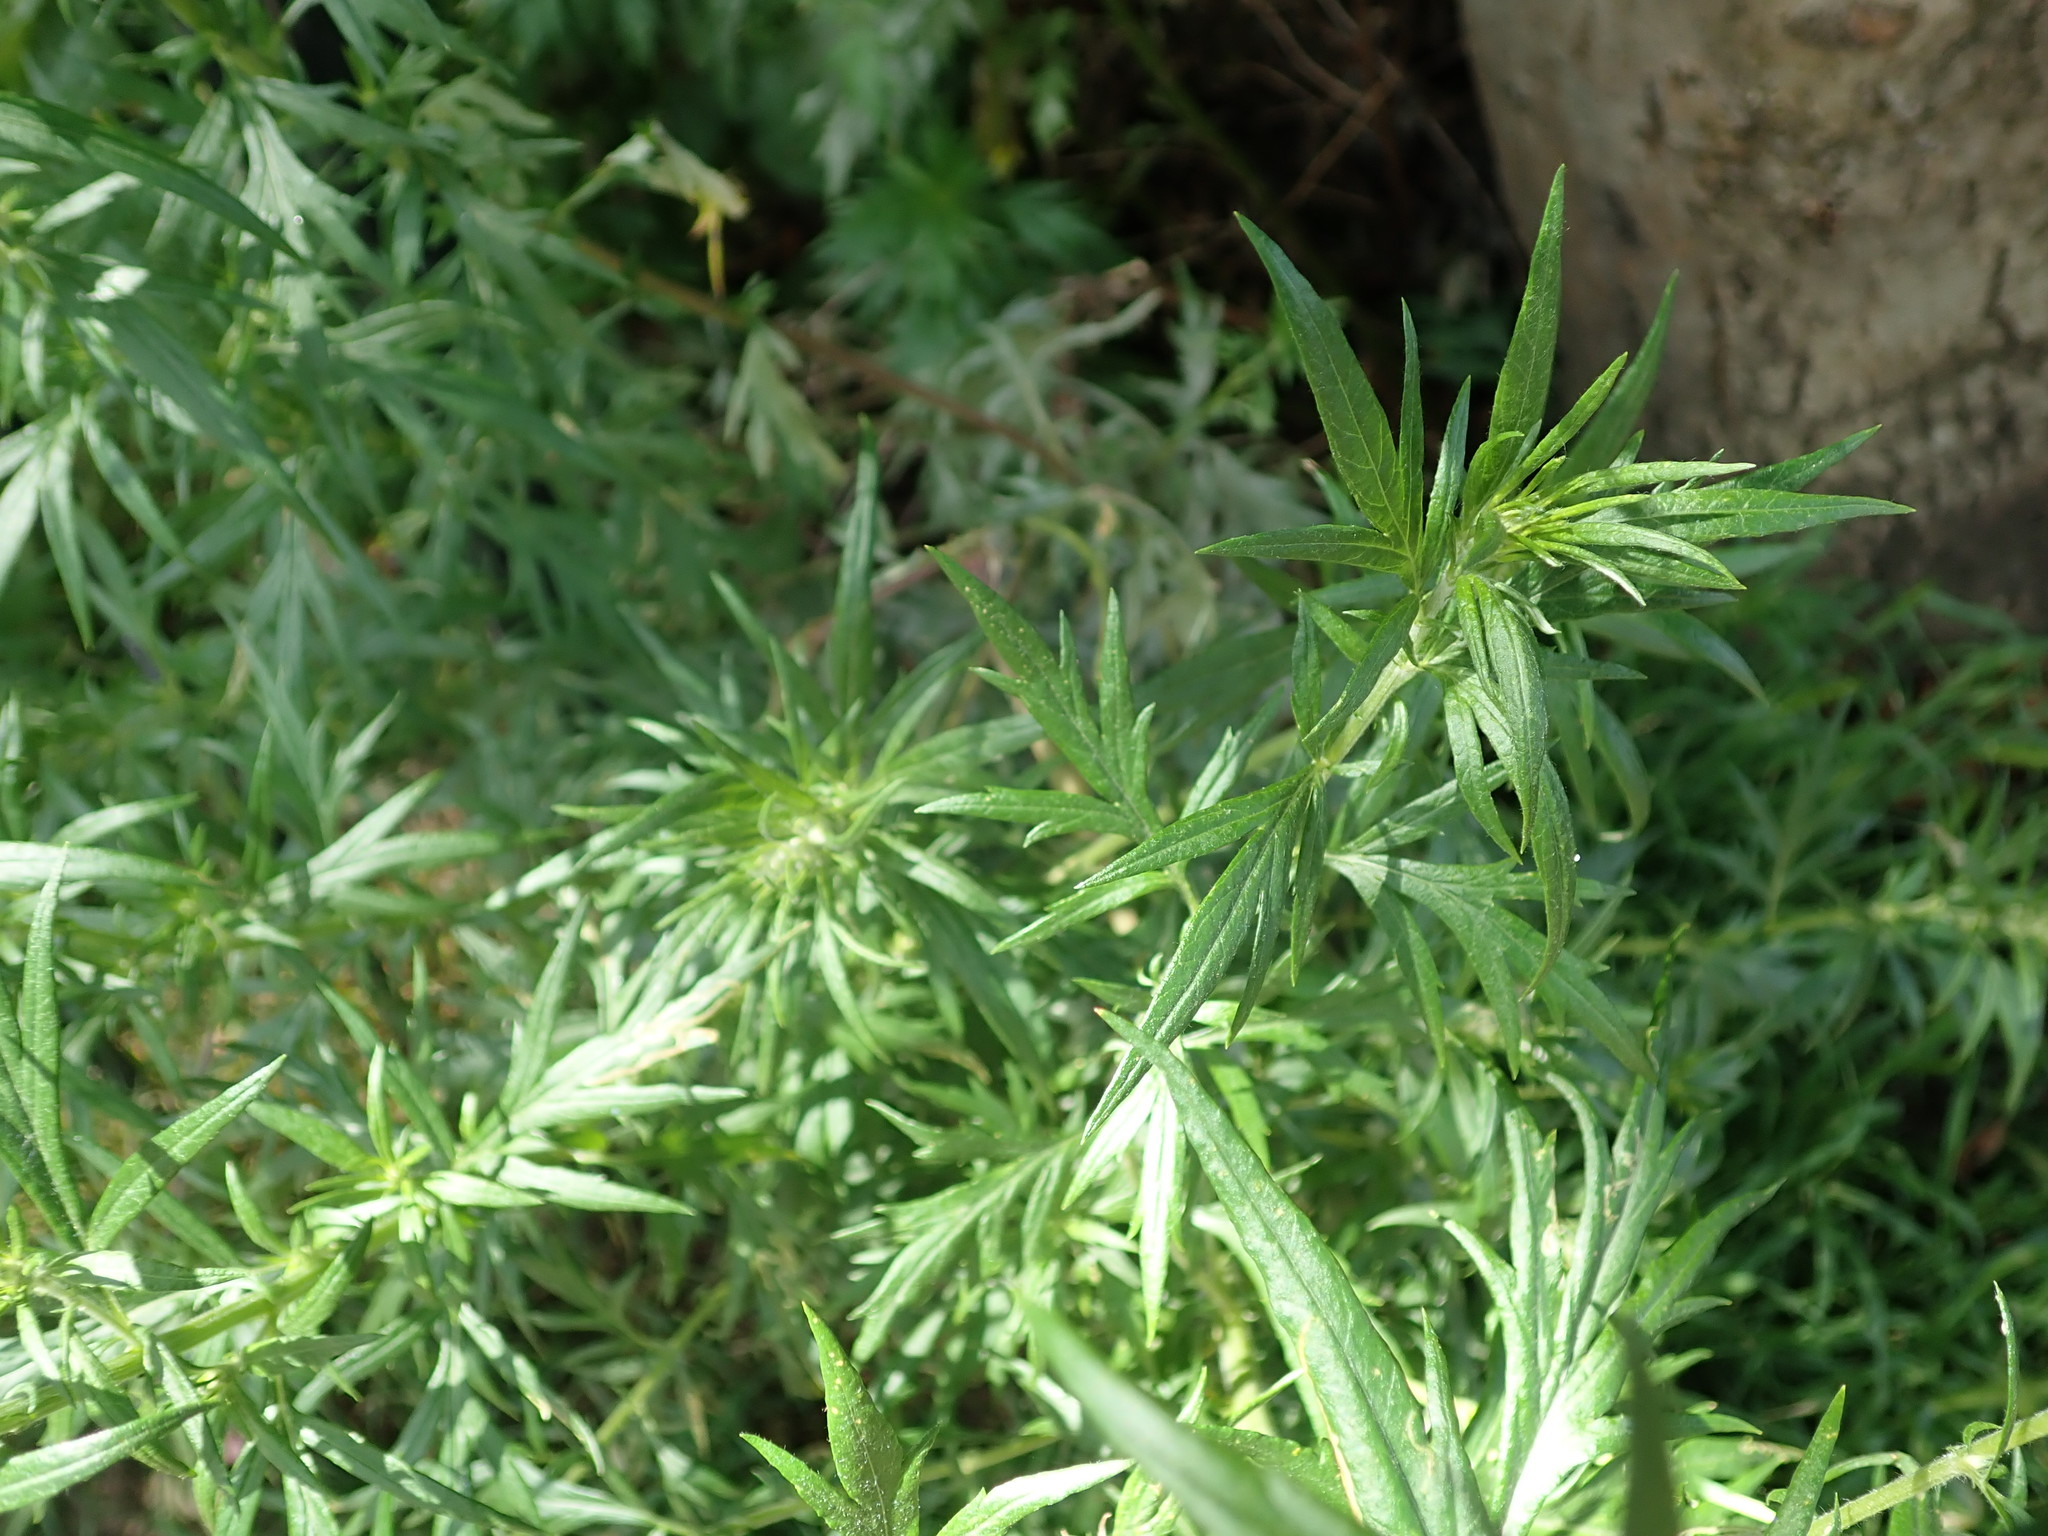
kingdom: Plantae
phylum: Tracheophyta
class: Magnoliopsida
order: Asterales
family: Asteraceae
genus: Artemisia
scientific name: Artemisia vulgaris
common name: Mugwort
